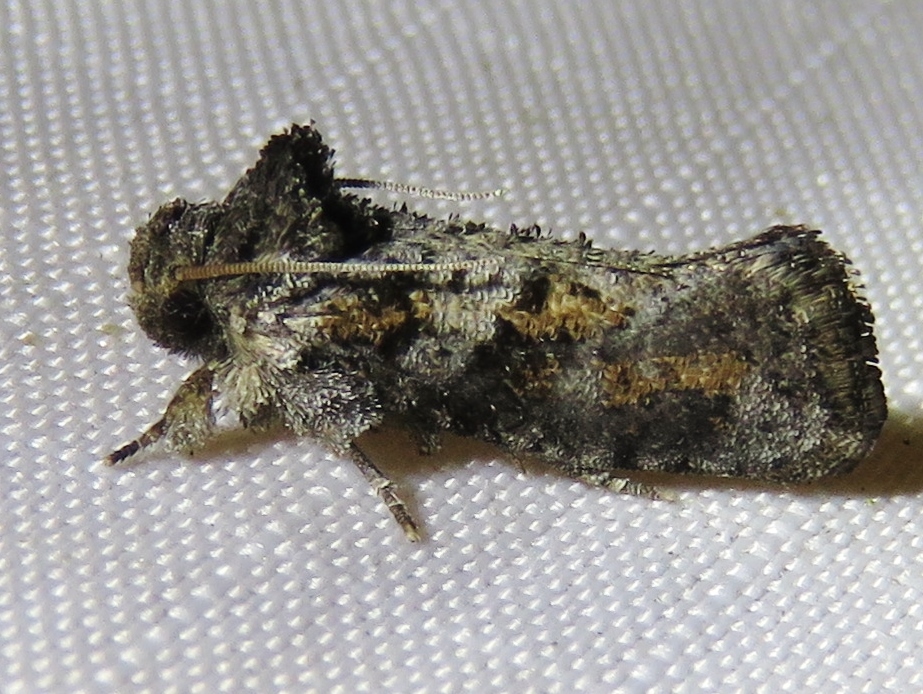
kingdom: Animalia
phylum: Arthropoda
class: Insecta
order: Lepidoptera
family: Tineidae
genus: Acrolophus
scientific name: Acrolophus piger
